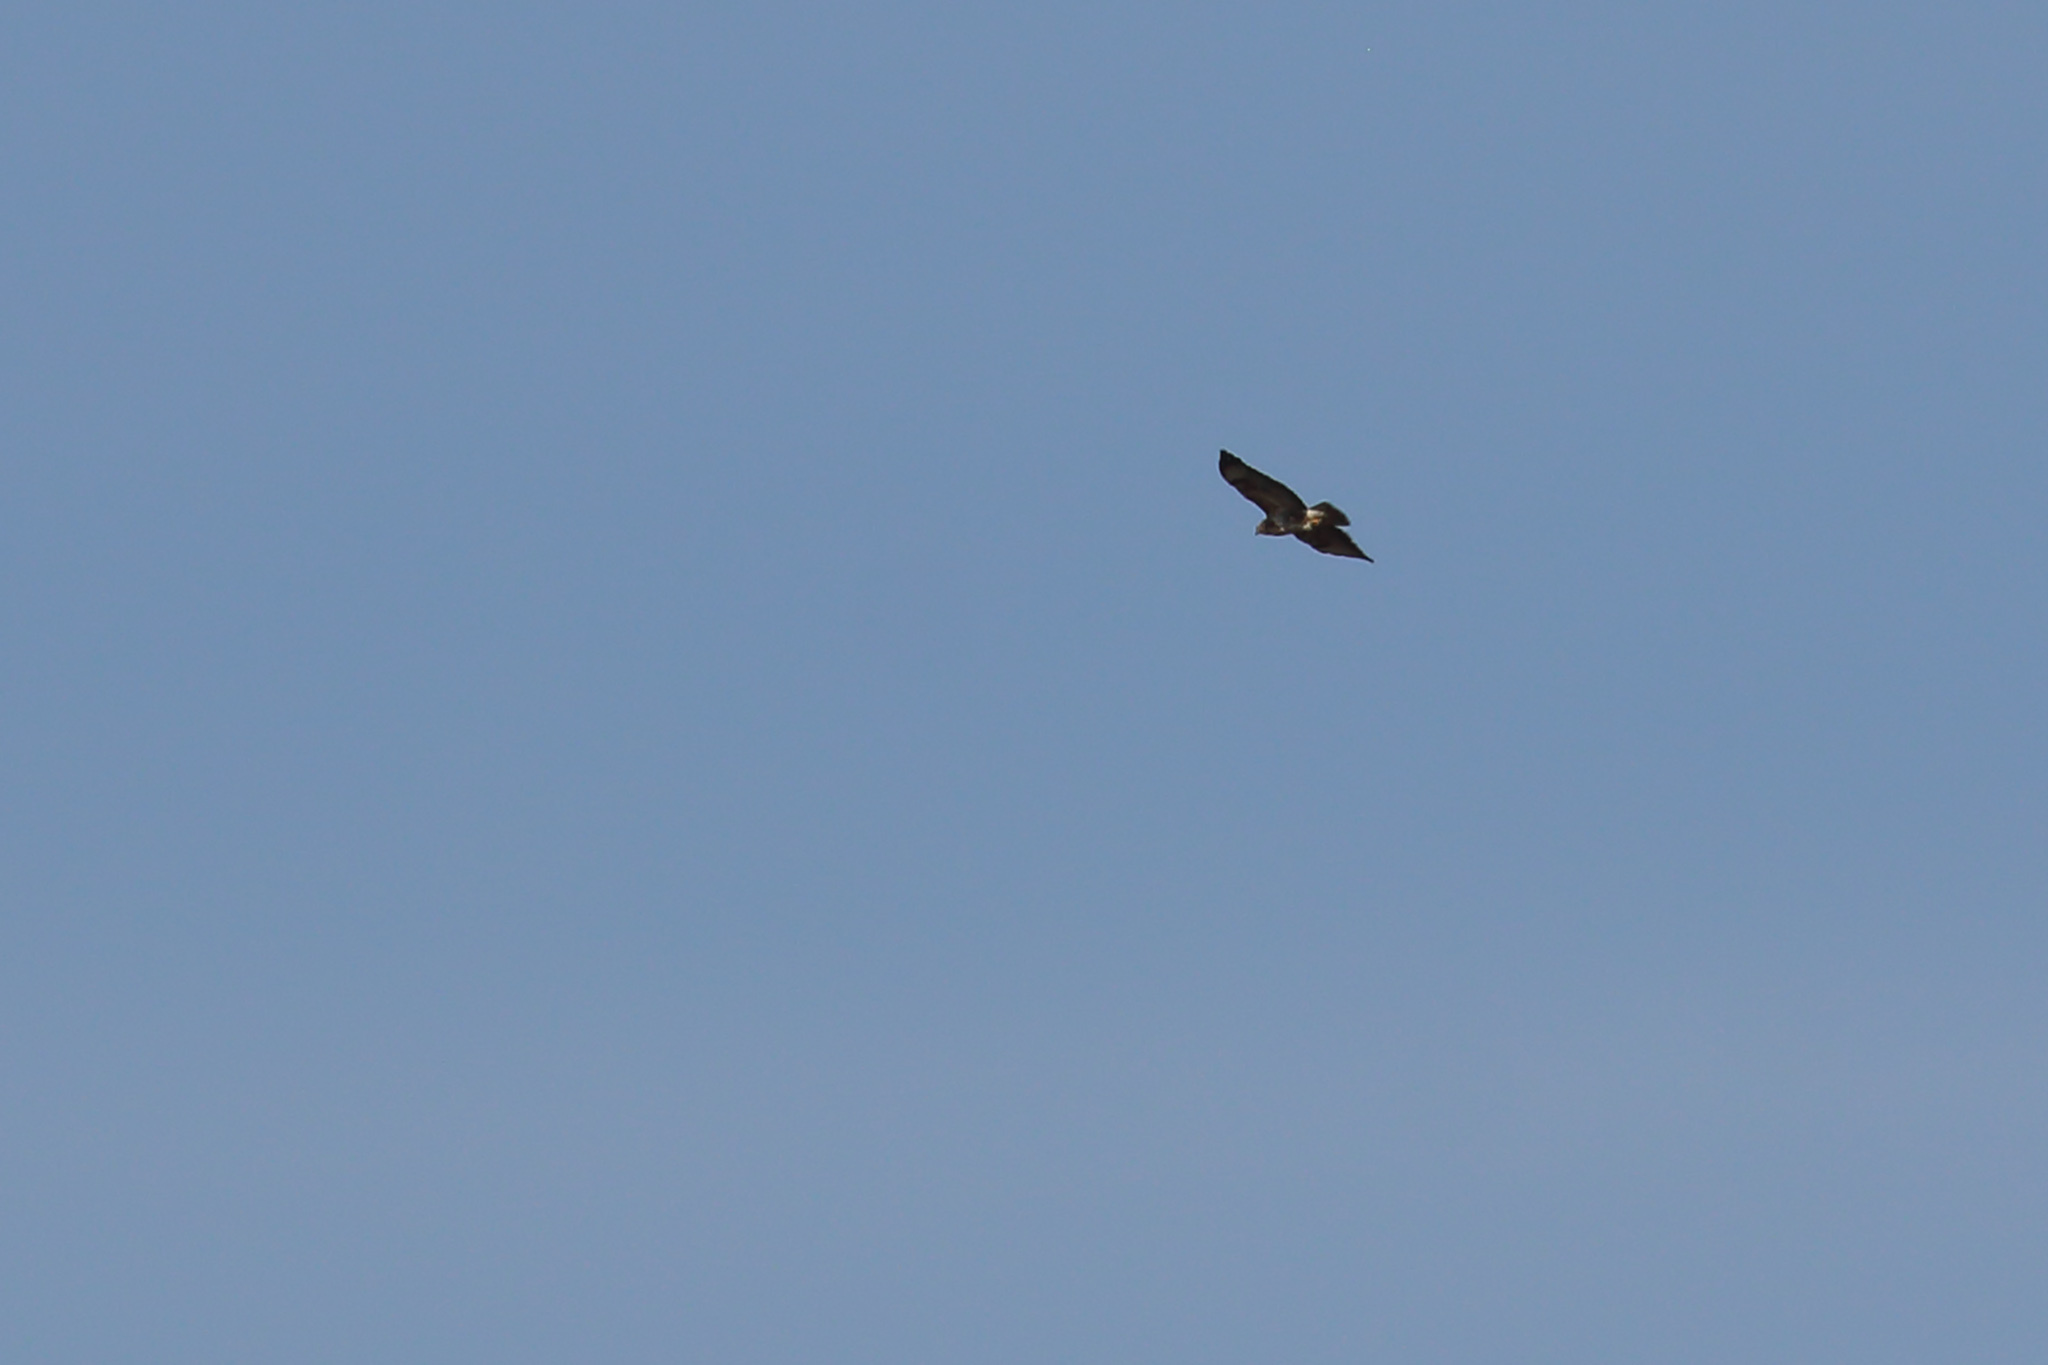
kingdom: Animalia
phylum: Chordata
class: Aves
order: Accipitriformes
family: Accipitridae
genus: Buteo
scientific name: Buteo buteo
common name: Common buzzard
